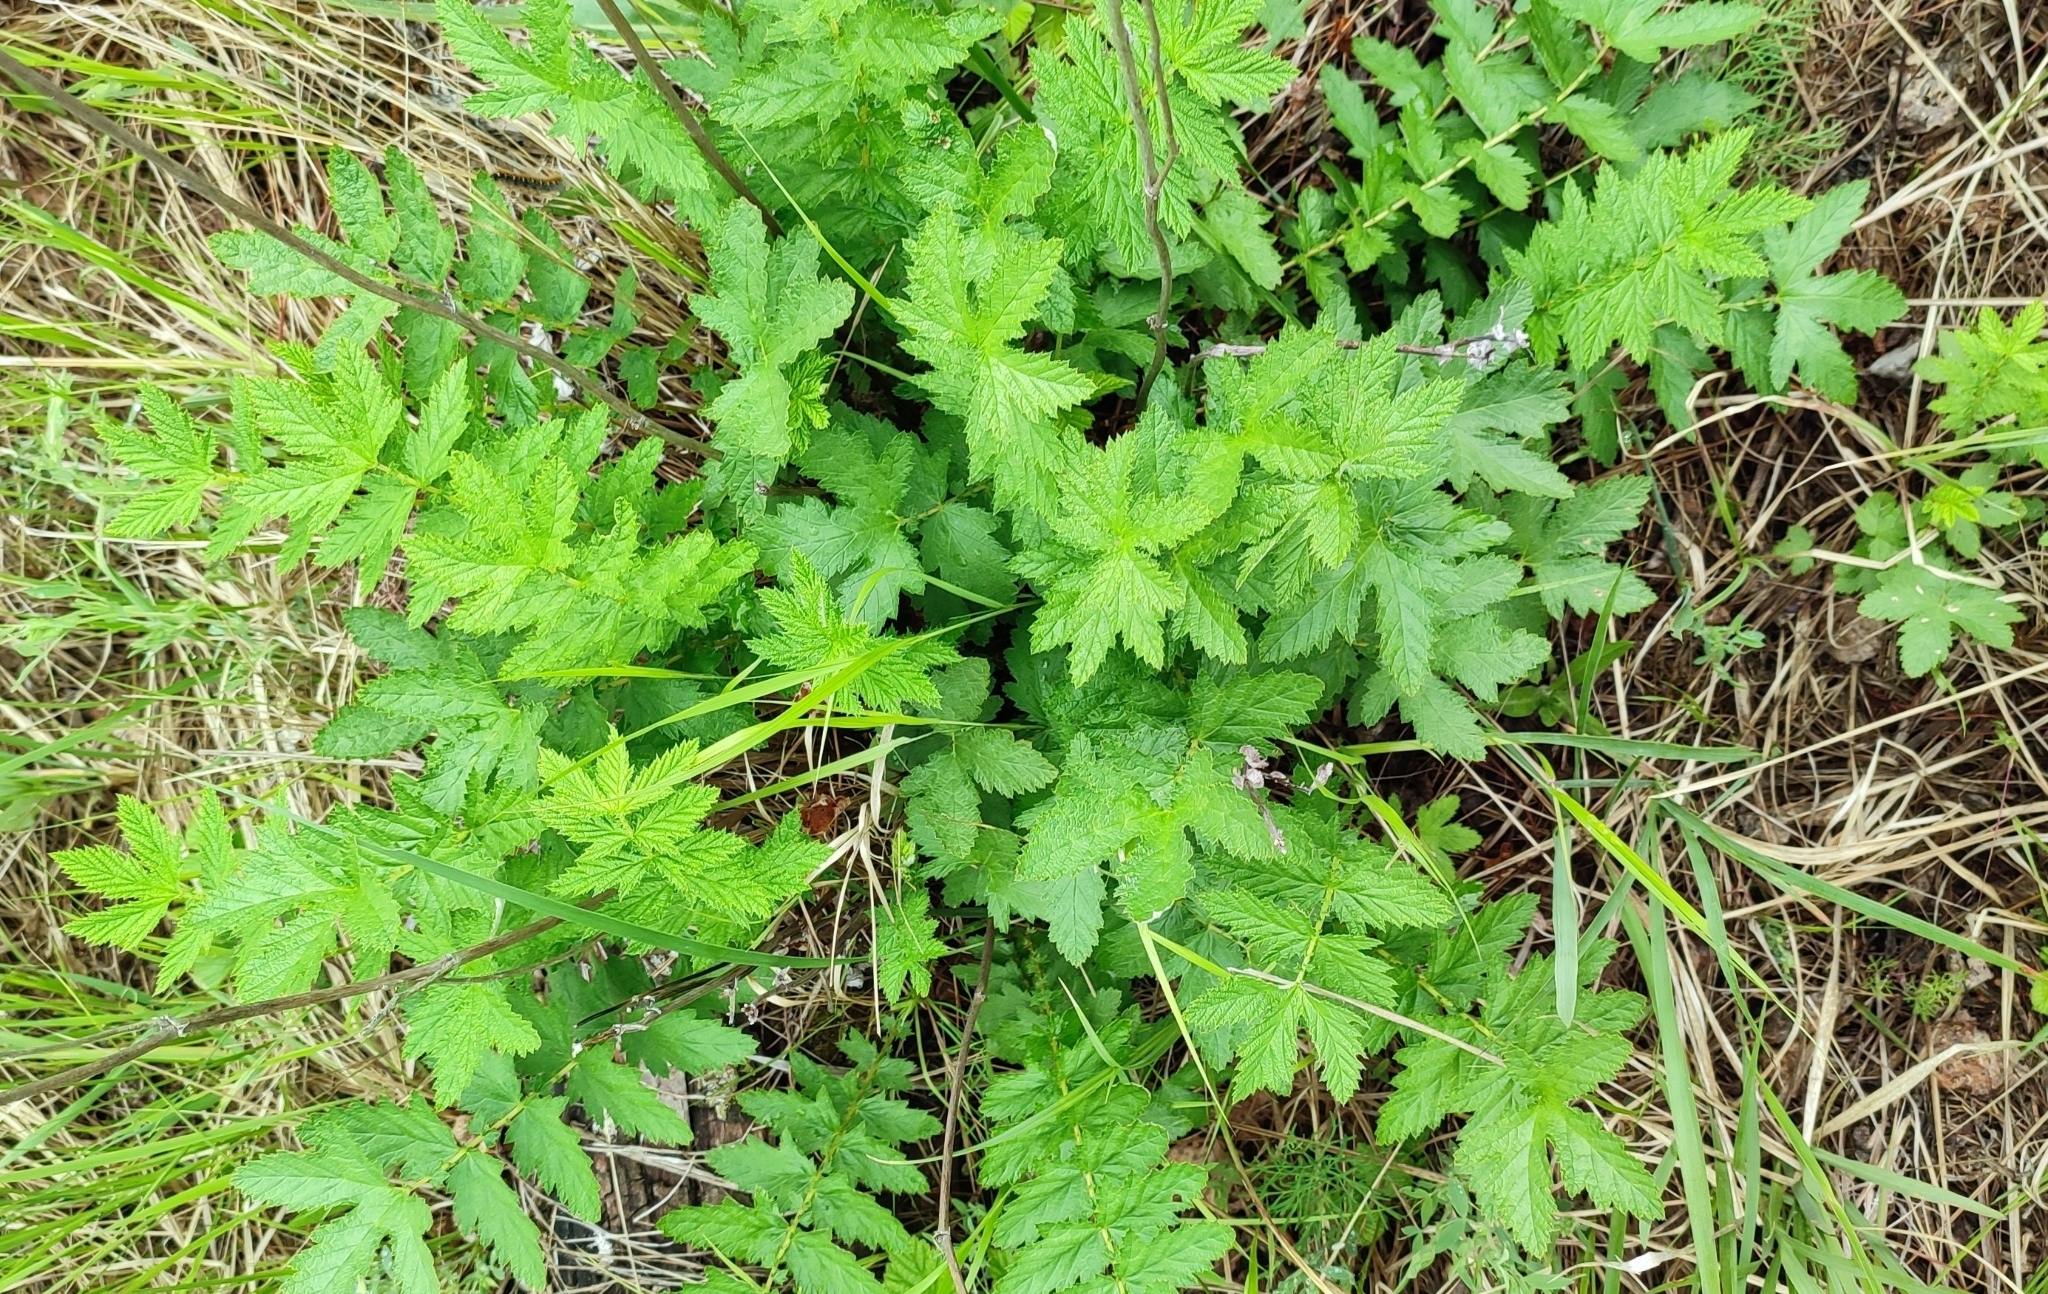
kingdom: Plantae
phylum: Tracheophyta
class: Magnoliopsida
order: Rosales
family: Rosaceae
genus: Filipendula
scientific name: Filipendula ulmaria
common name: Meadowsweet
